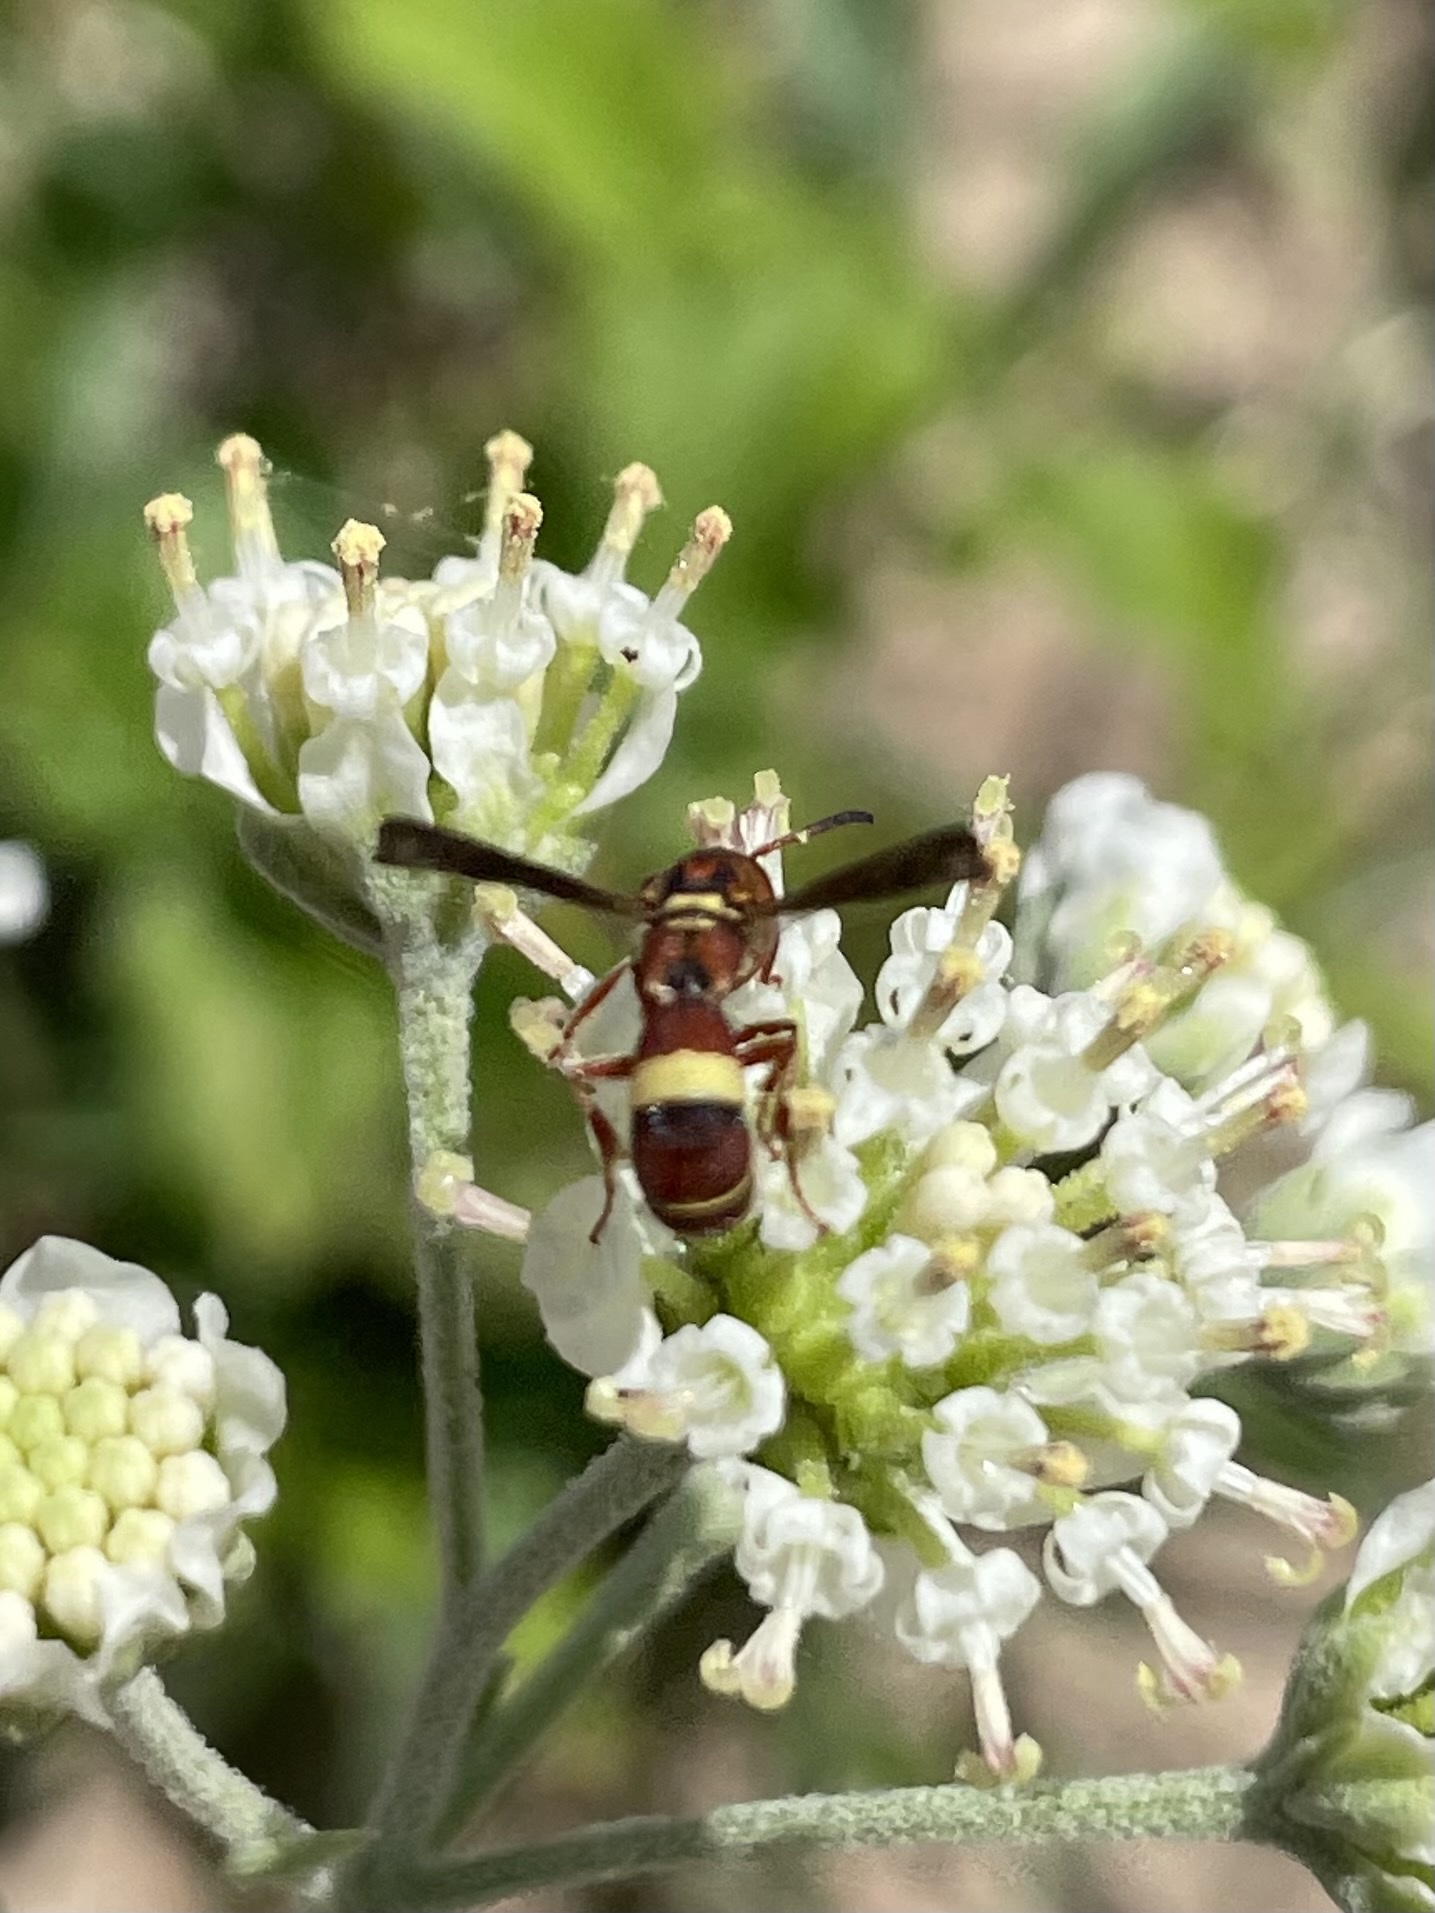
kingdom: Animalia
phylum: Arthropoda
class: Insecta
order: Hymenoptera
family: Eumenidae
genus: Dolichodynerus
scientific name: Dolichodynerus tanynotus
